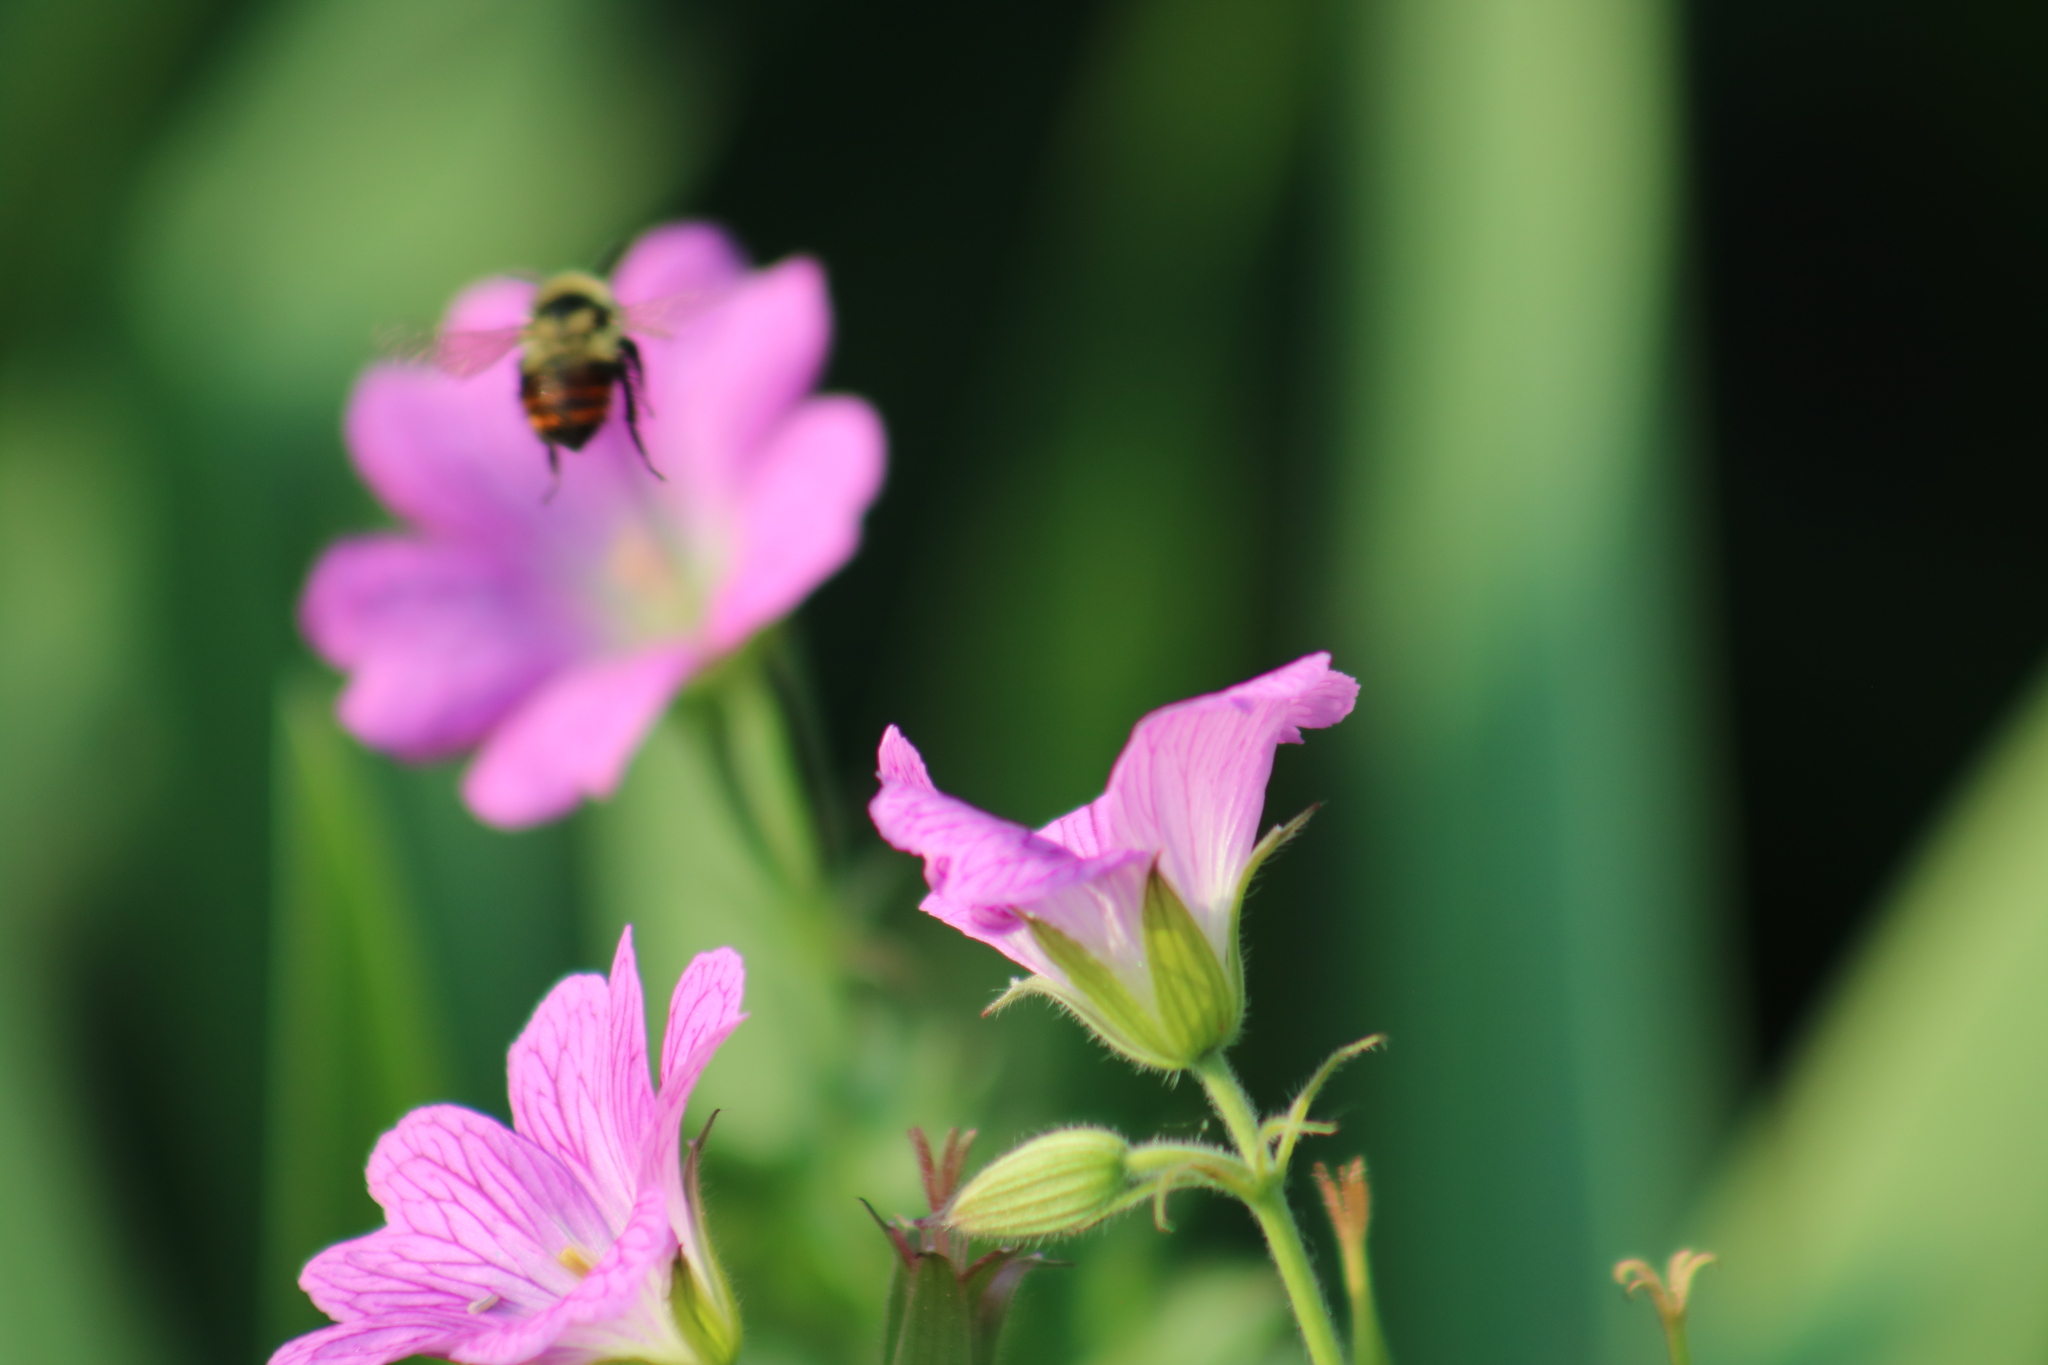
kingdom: Animalia
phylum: Arthropoda
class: Insecta
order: Hymenoptera
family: Apidae
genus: Bombus
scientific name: Bombus rufocinctus
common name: Red-belted bumble bee
